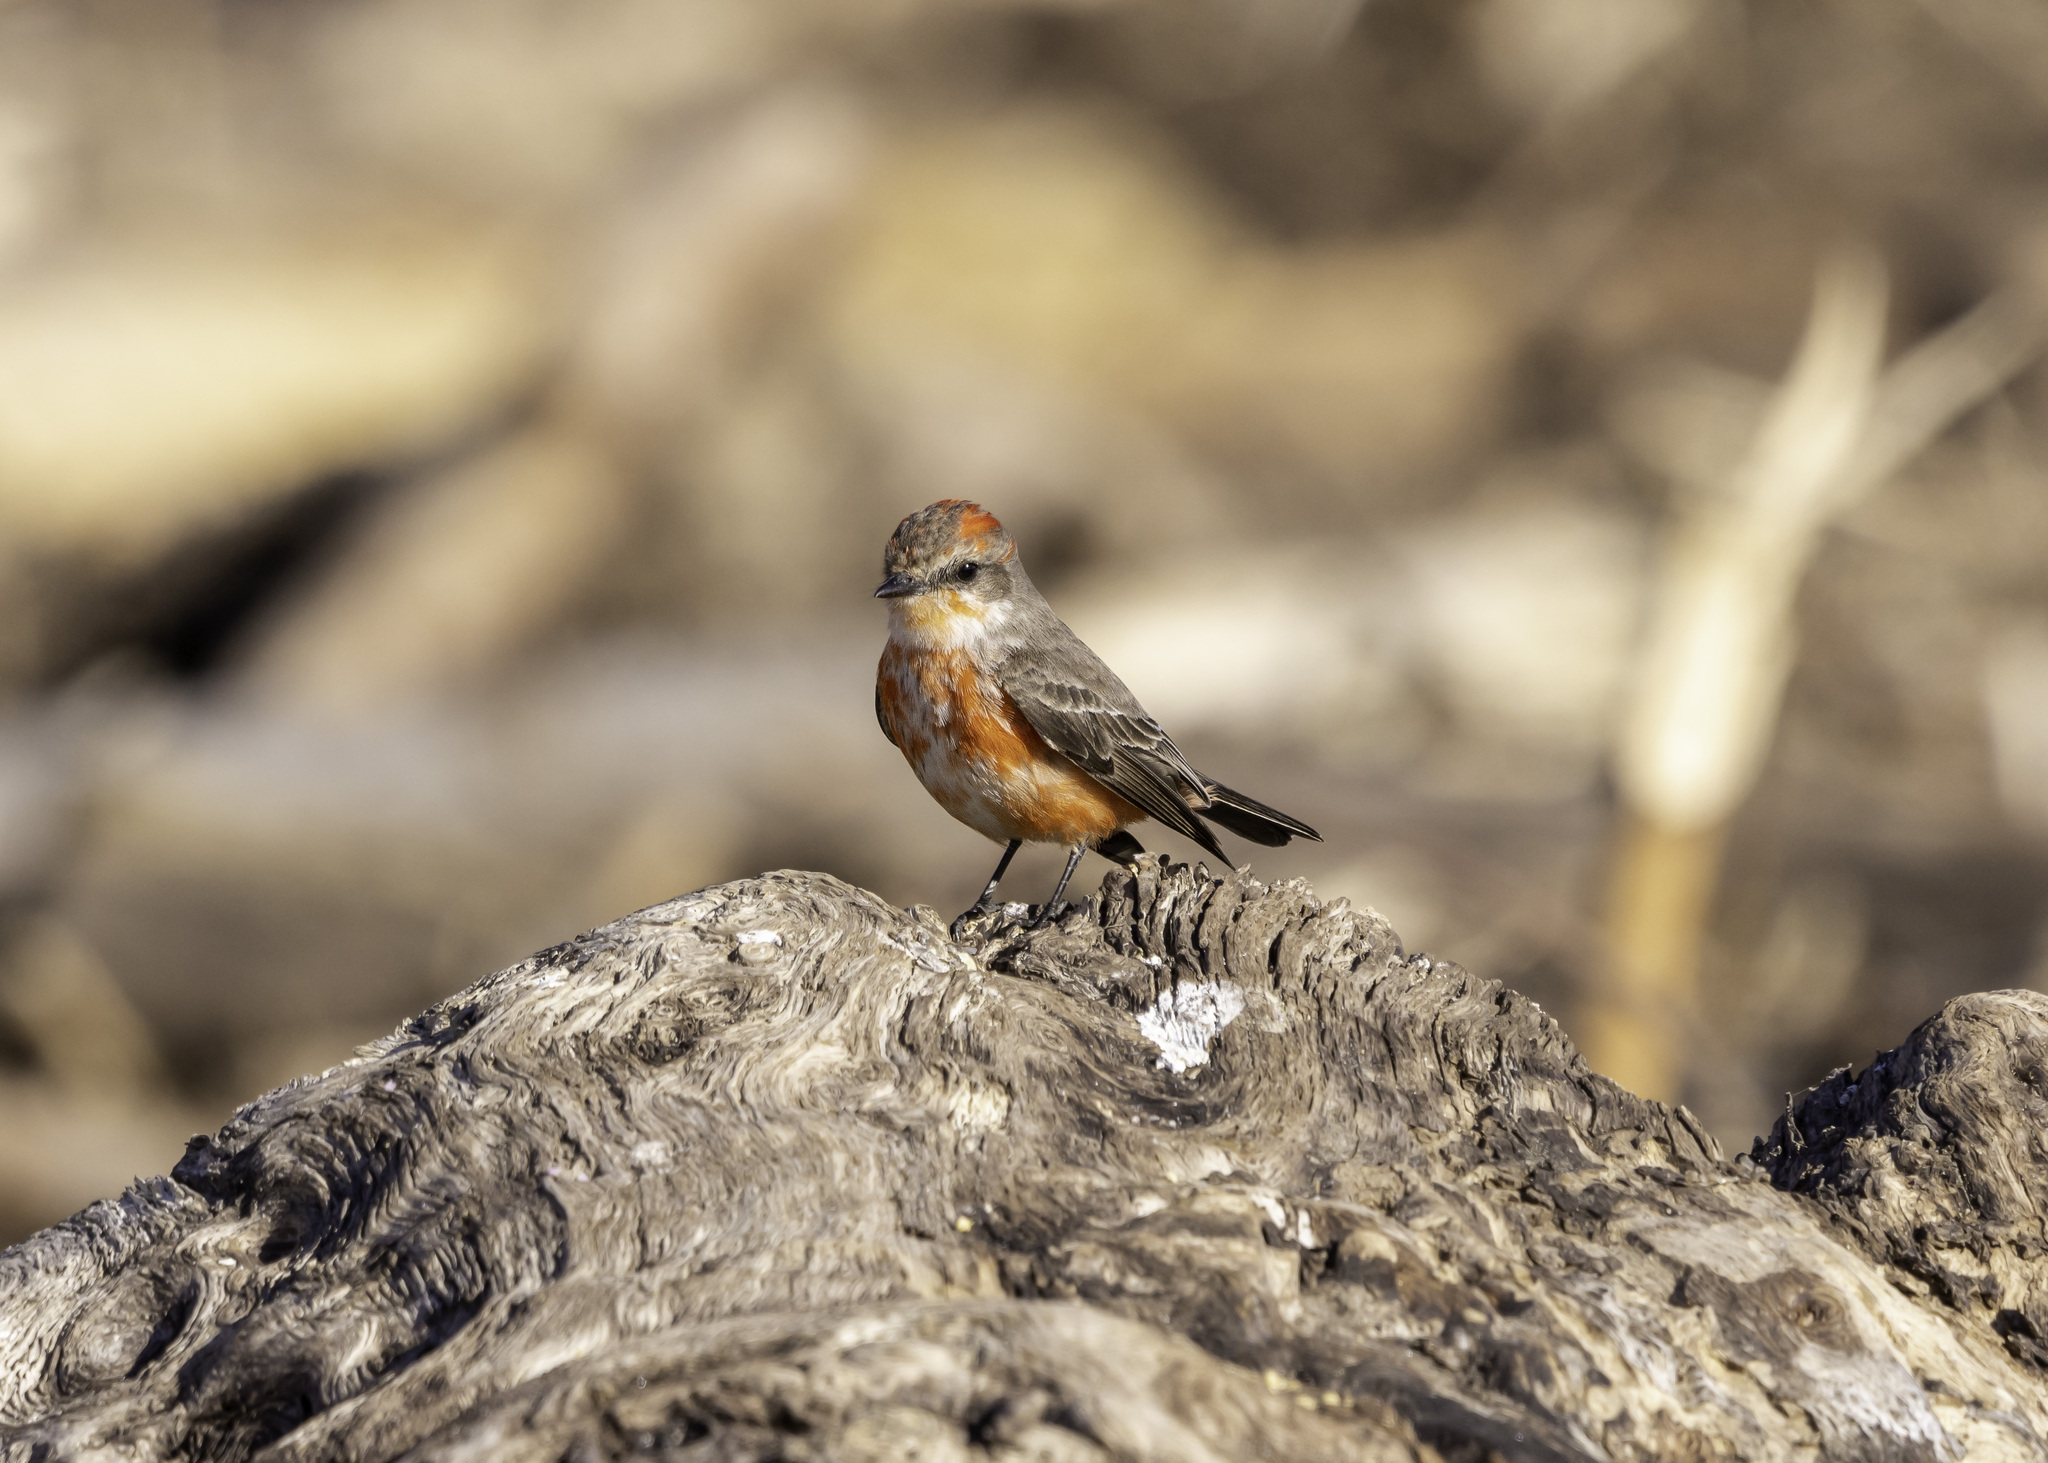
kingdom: Animalia
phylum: Chordata
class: Aves
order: Passeriformes
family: Tyrannidae
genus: Pyrocephalus
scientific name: Pyrocephalus rubinus
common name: Vermilion flycatcher
